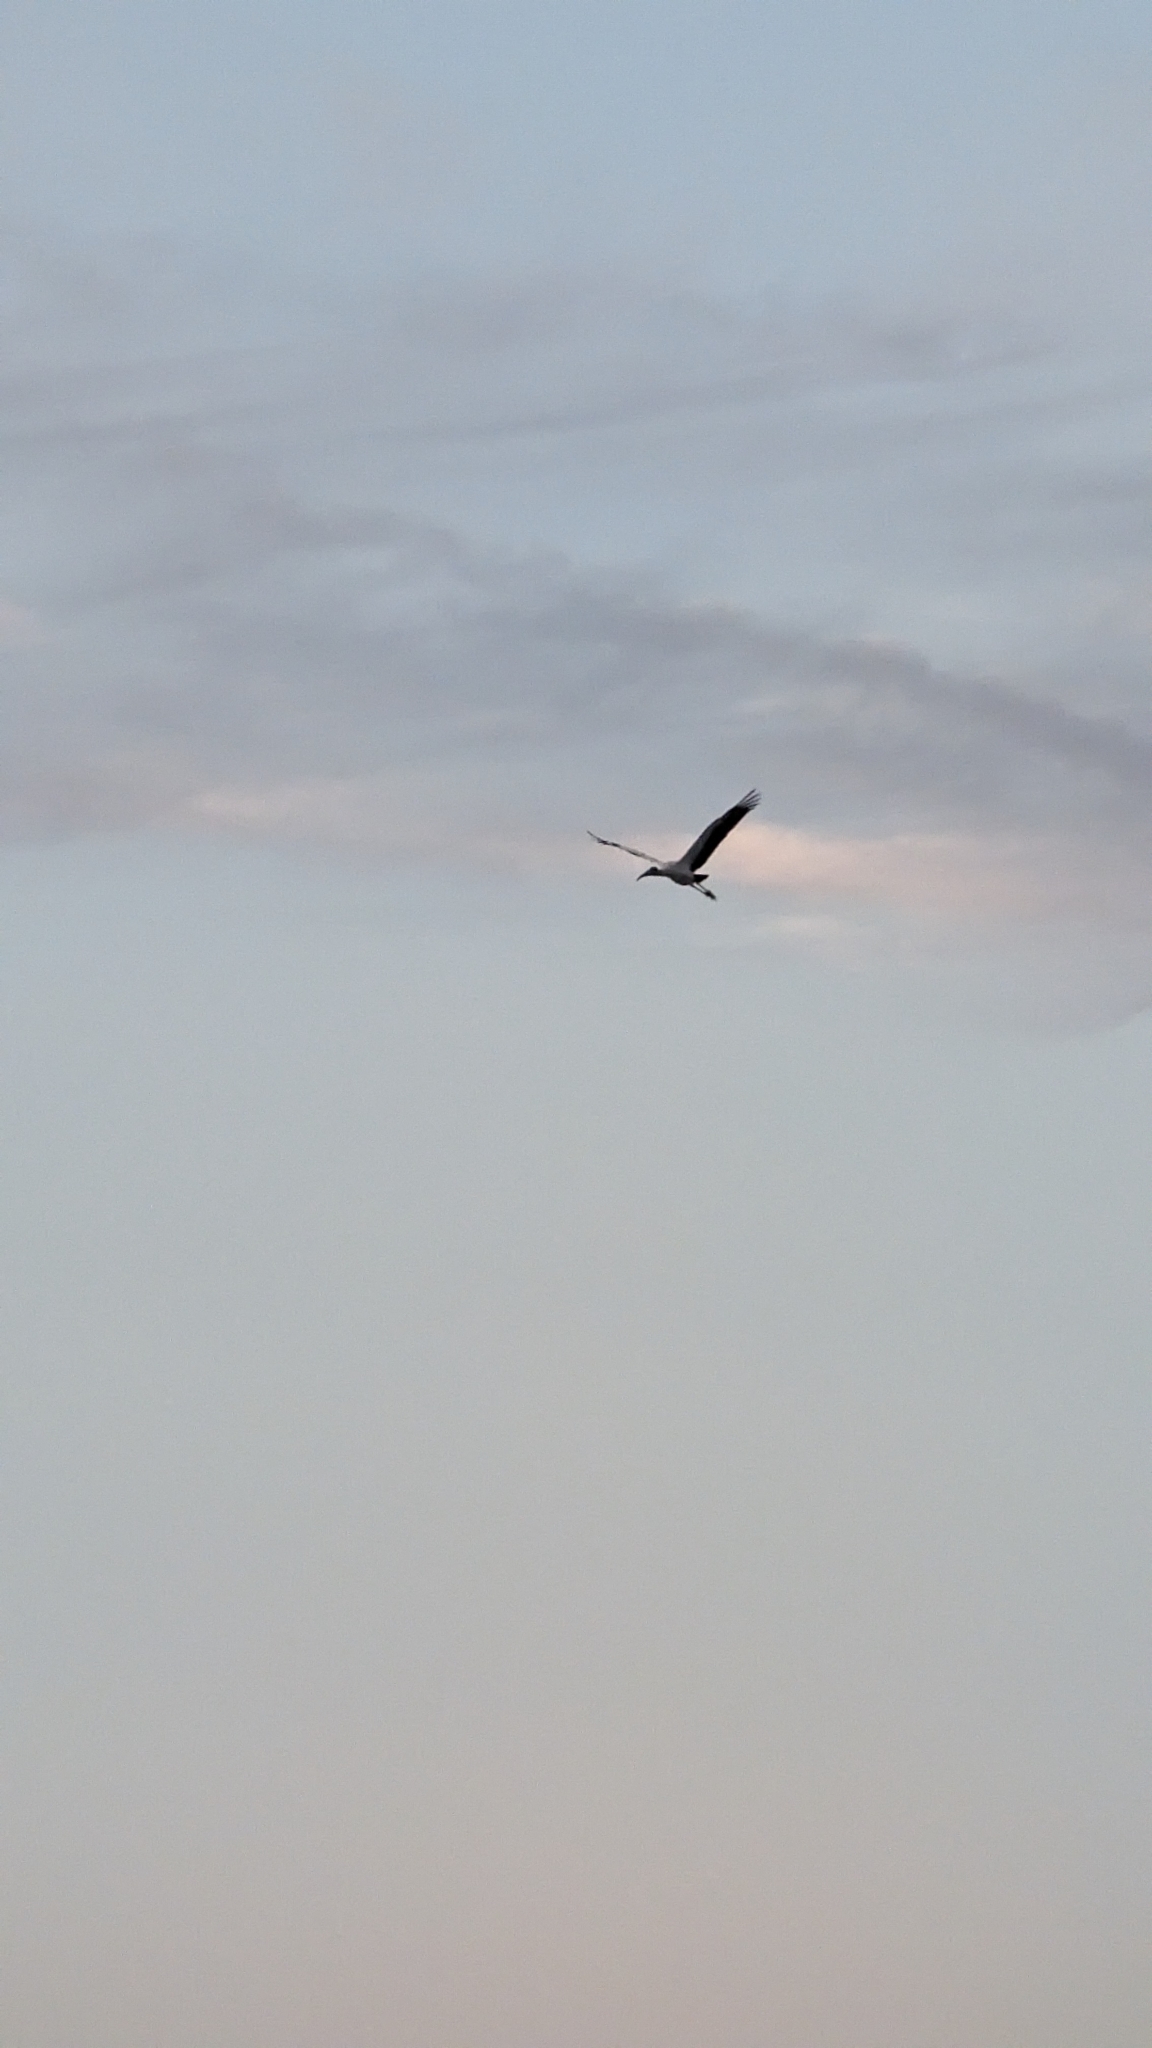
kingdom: Animalia
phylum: Chordata
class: Aves
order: Ciconiiformes
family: Ciconiidae
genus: Mycteria
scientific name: Mycteria americana
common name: Wood stork
